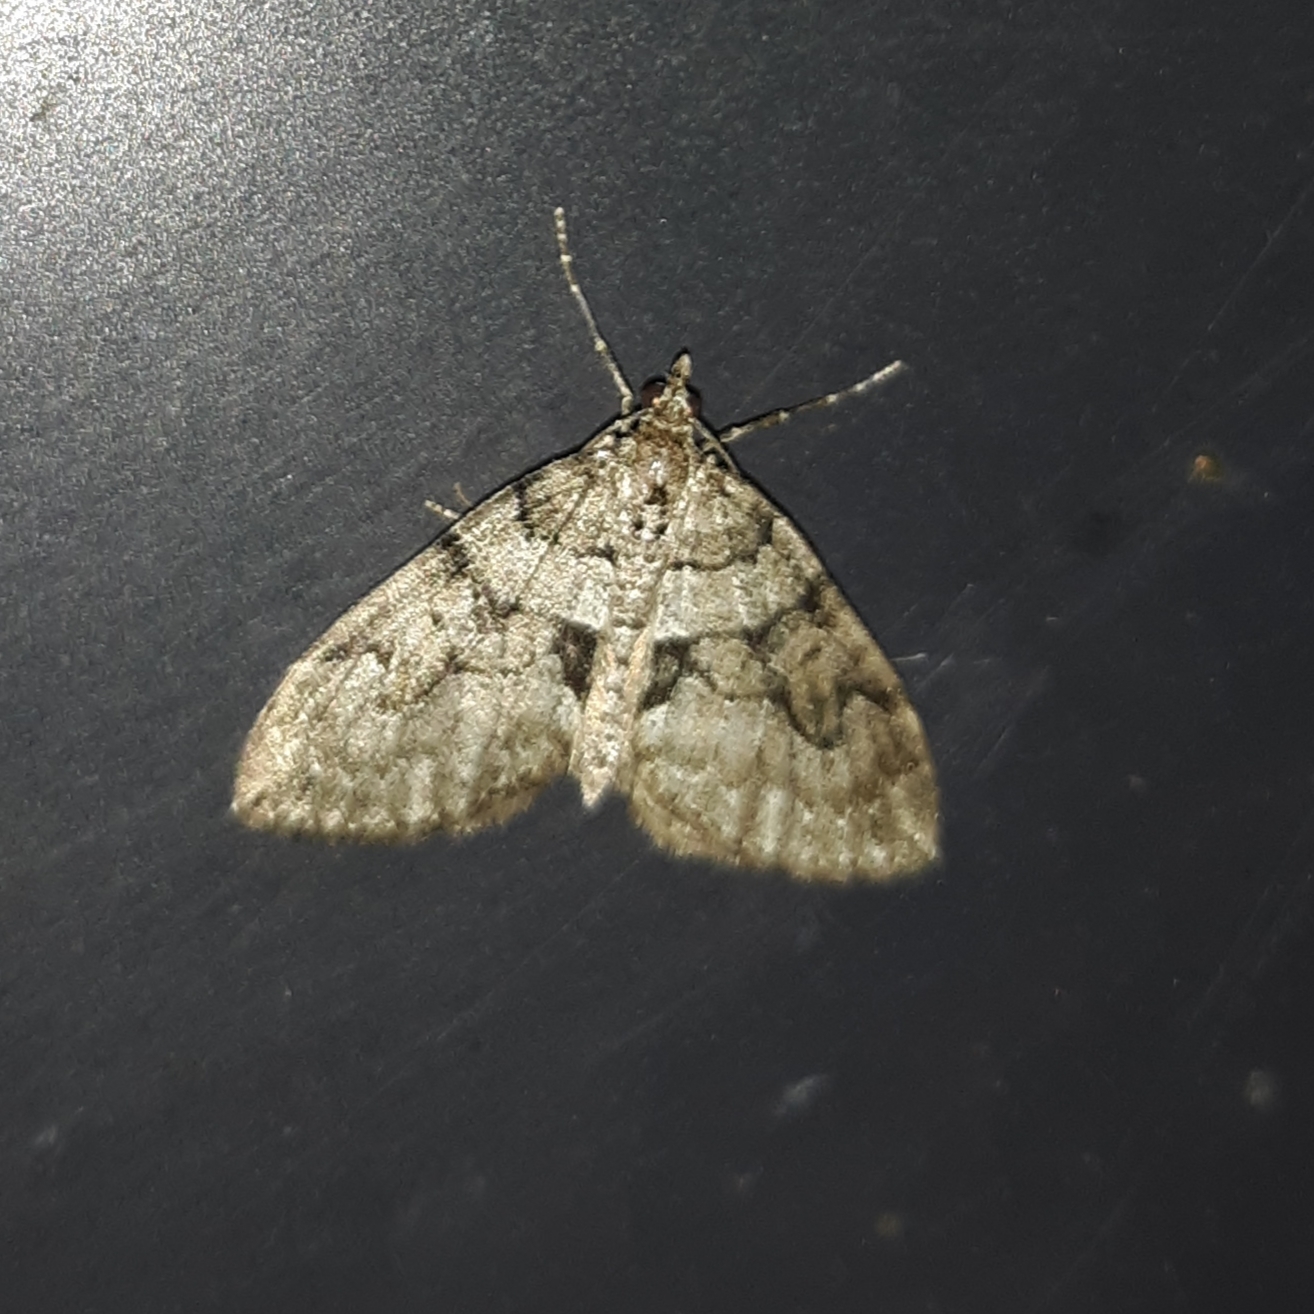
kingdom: Animalia
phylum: Arthropoda
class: Insecta
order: Lepidoptera
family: Geometridae
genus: Thera
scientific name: Thera contractata
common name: Contracted spanworm
